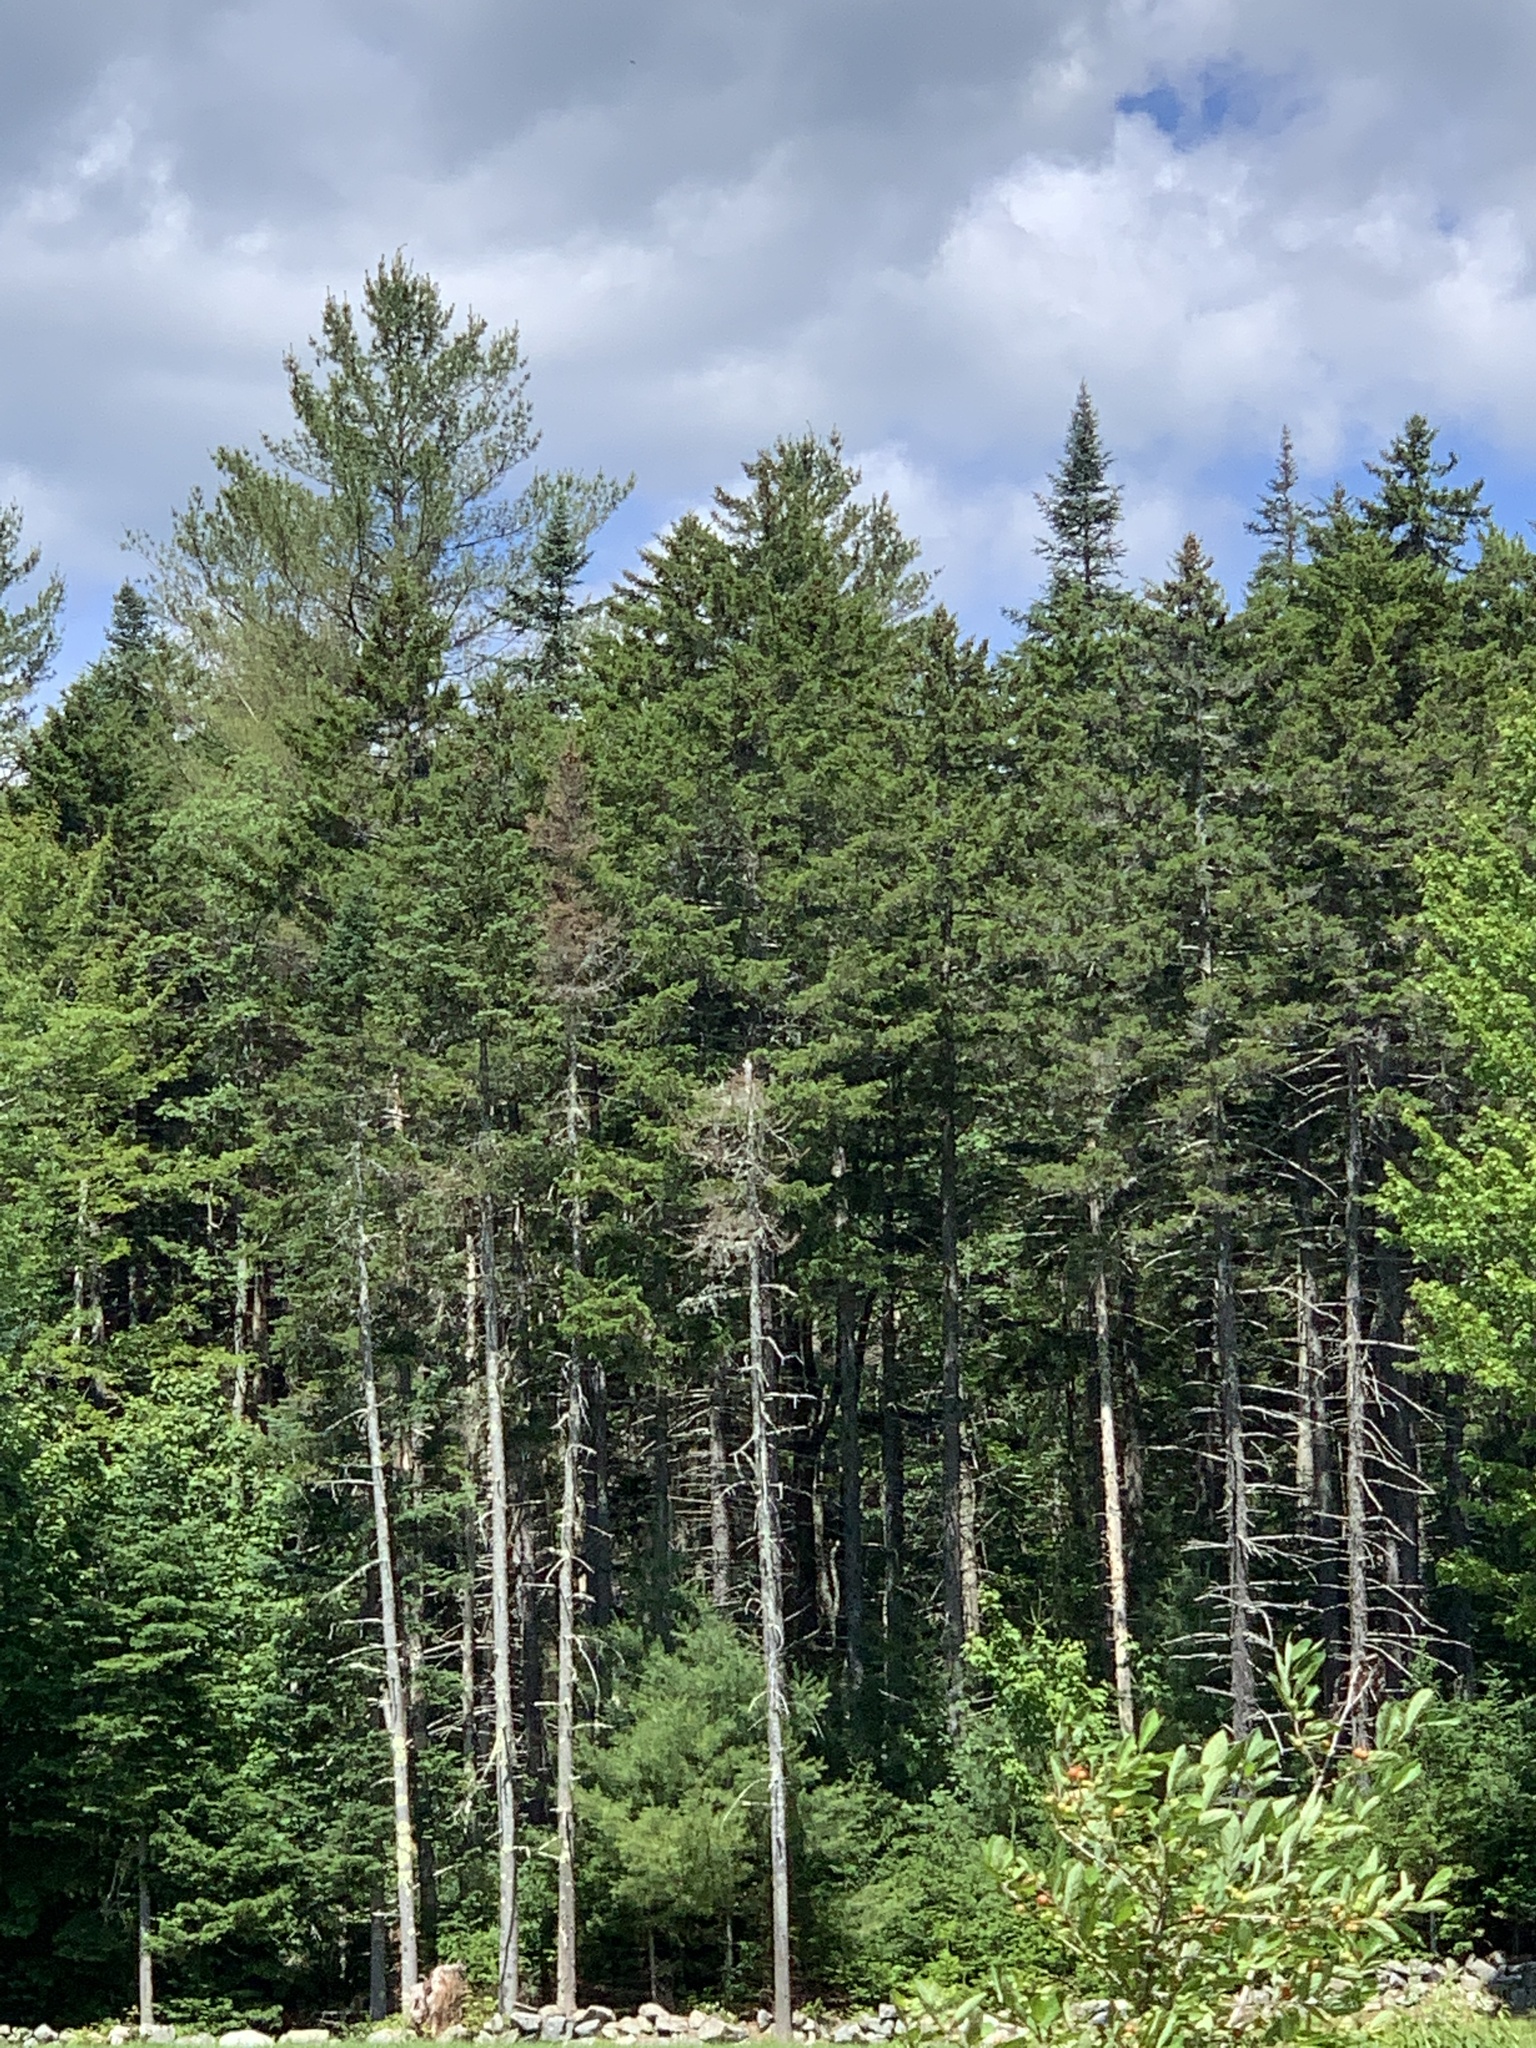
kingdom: Plantae
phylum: Tracheophyta
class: Pinopsida
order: Pinales
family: Pinaceae
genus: Picea
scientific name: Picea rubens
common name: Red spruce
